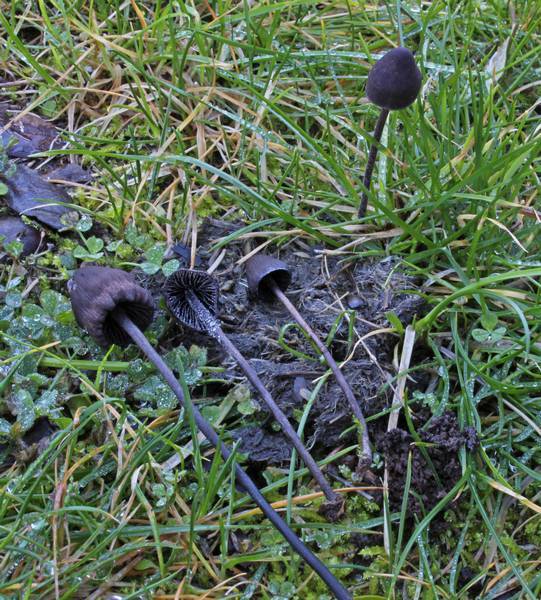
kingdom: Fungi
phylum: Basidiomycota
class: Agaricomycetes
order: Agaricales
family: Bolbitiaceae
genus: Panaeolus
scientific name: Panaeolus acuminatus
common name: Dewdrop mottlegill
